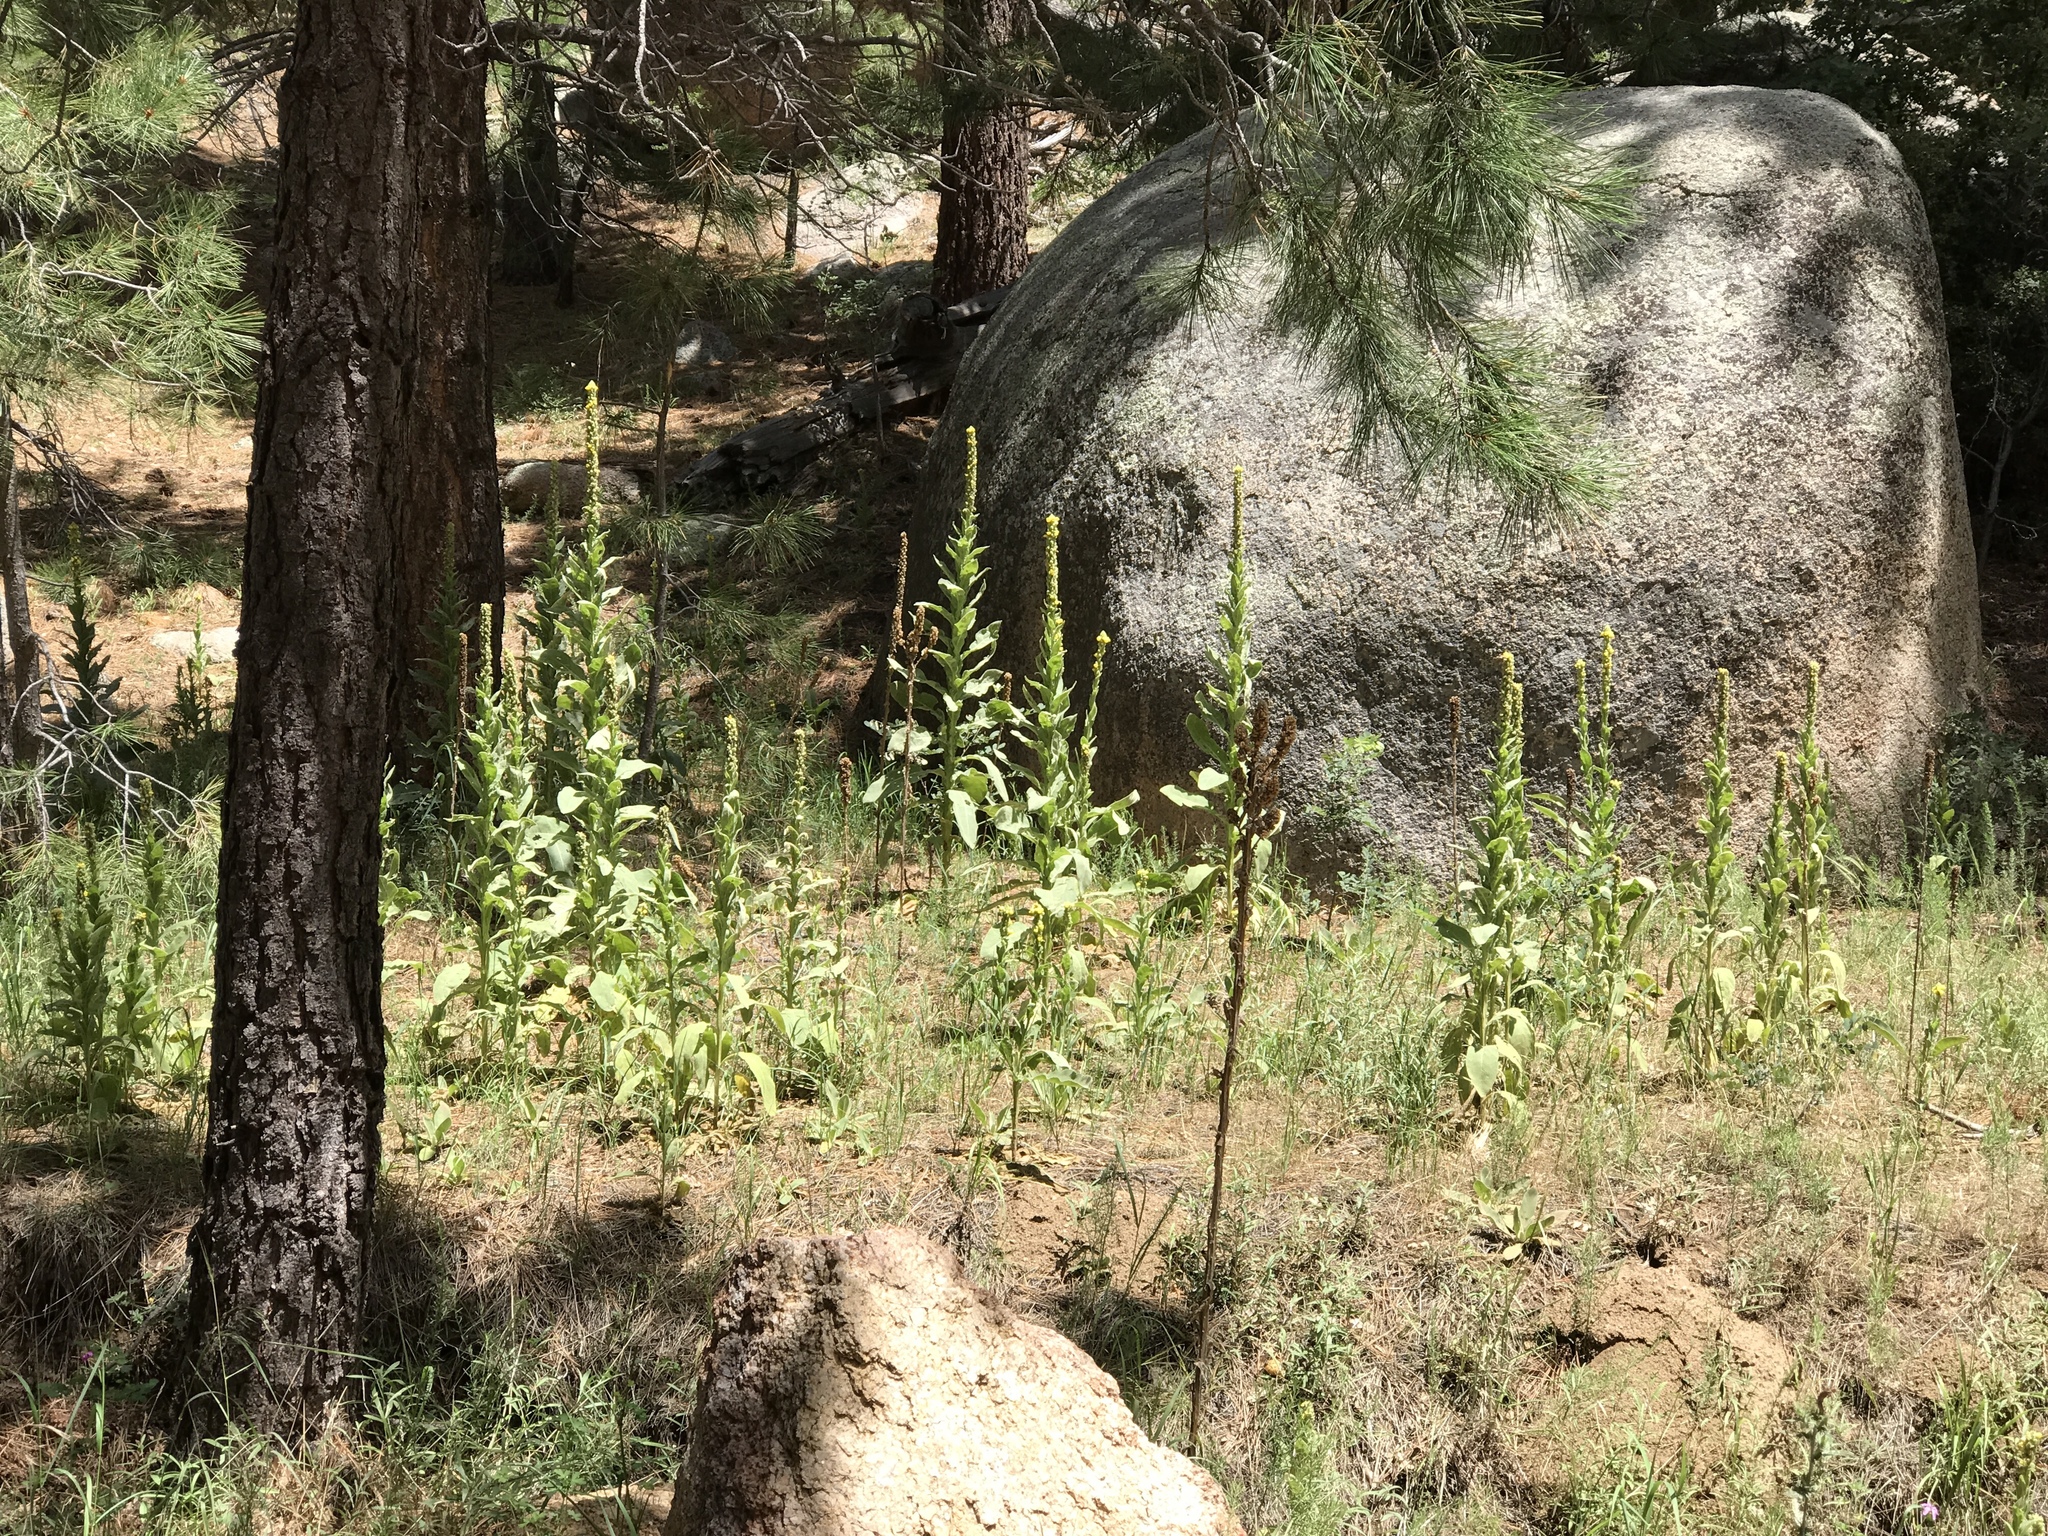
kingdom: Plantae
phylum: Tracheophyta
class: Magnoliopsida
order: Lamiales
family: Scrophulariaceae
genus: Verbascum
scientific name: Verbascum thapsus
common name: Common mullein
